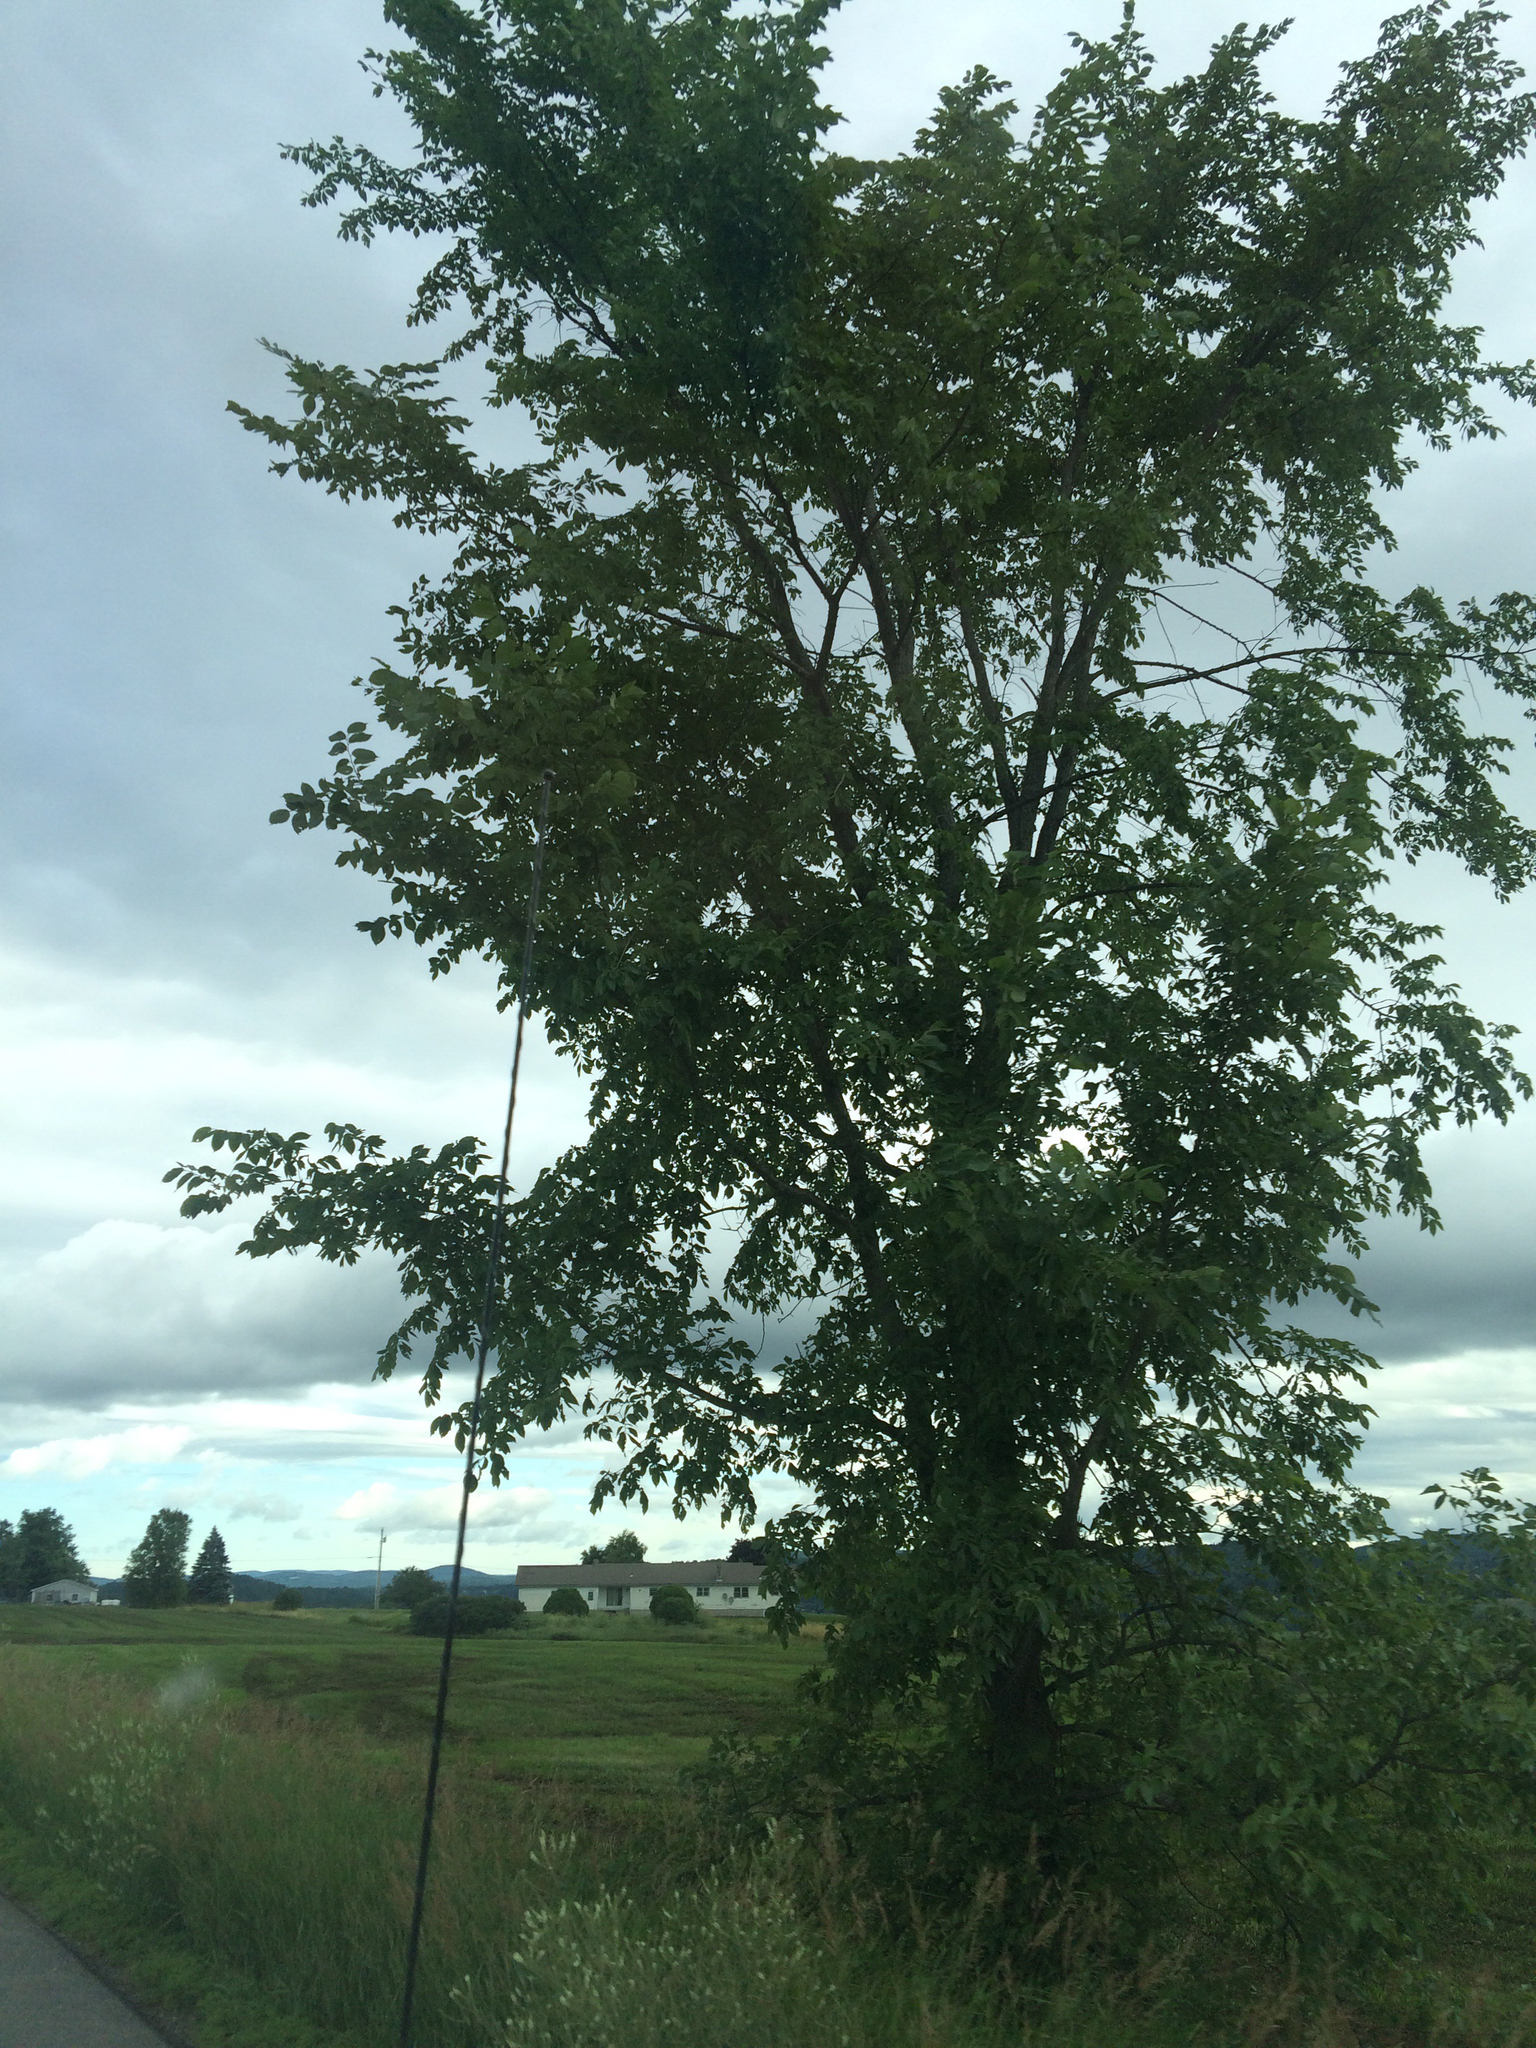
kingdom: Plantae
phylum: Tracheophyta
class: Magnoliopsida
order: Rosales
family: Ulmaceae
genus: Ulmus
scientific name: Ulmus americana
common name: American elm
